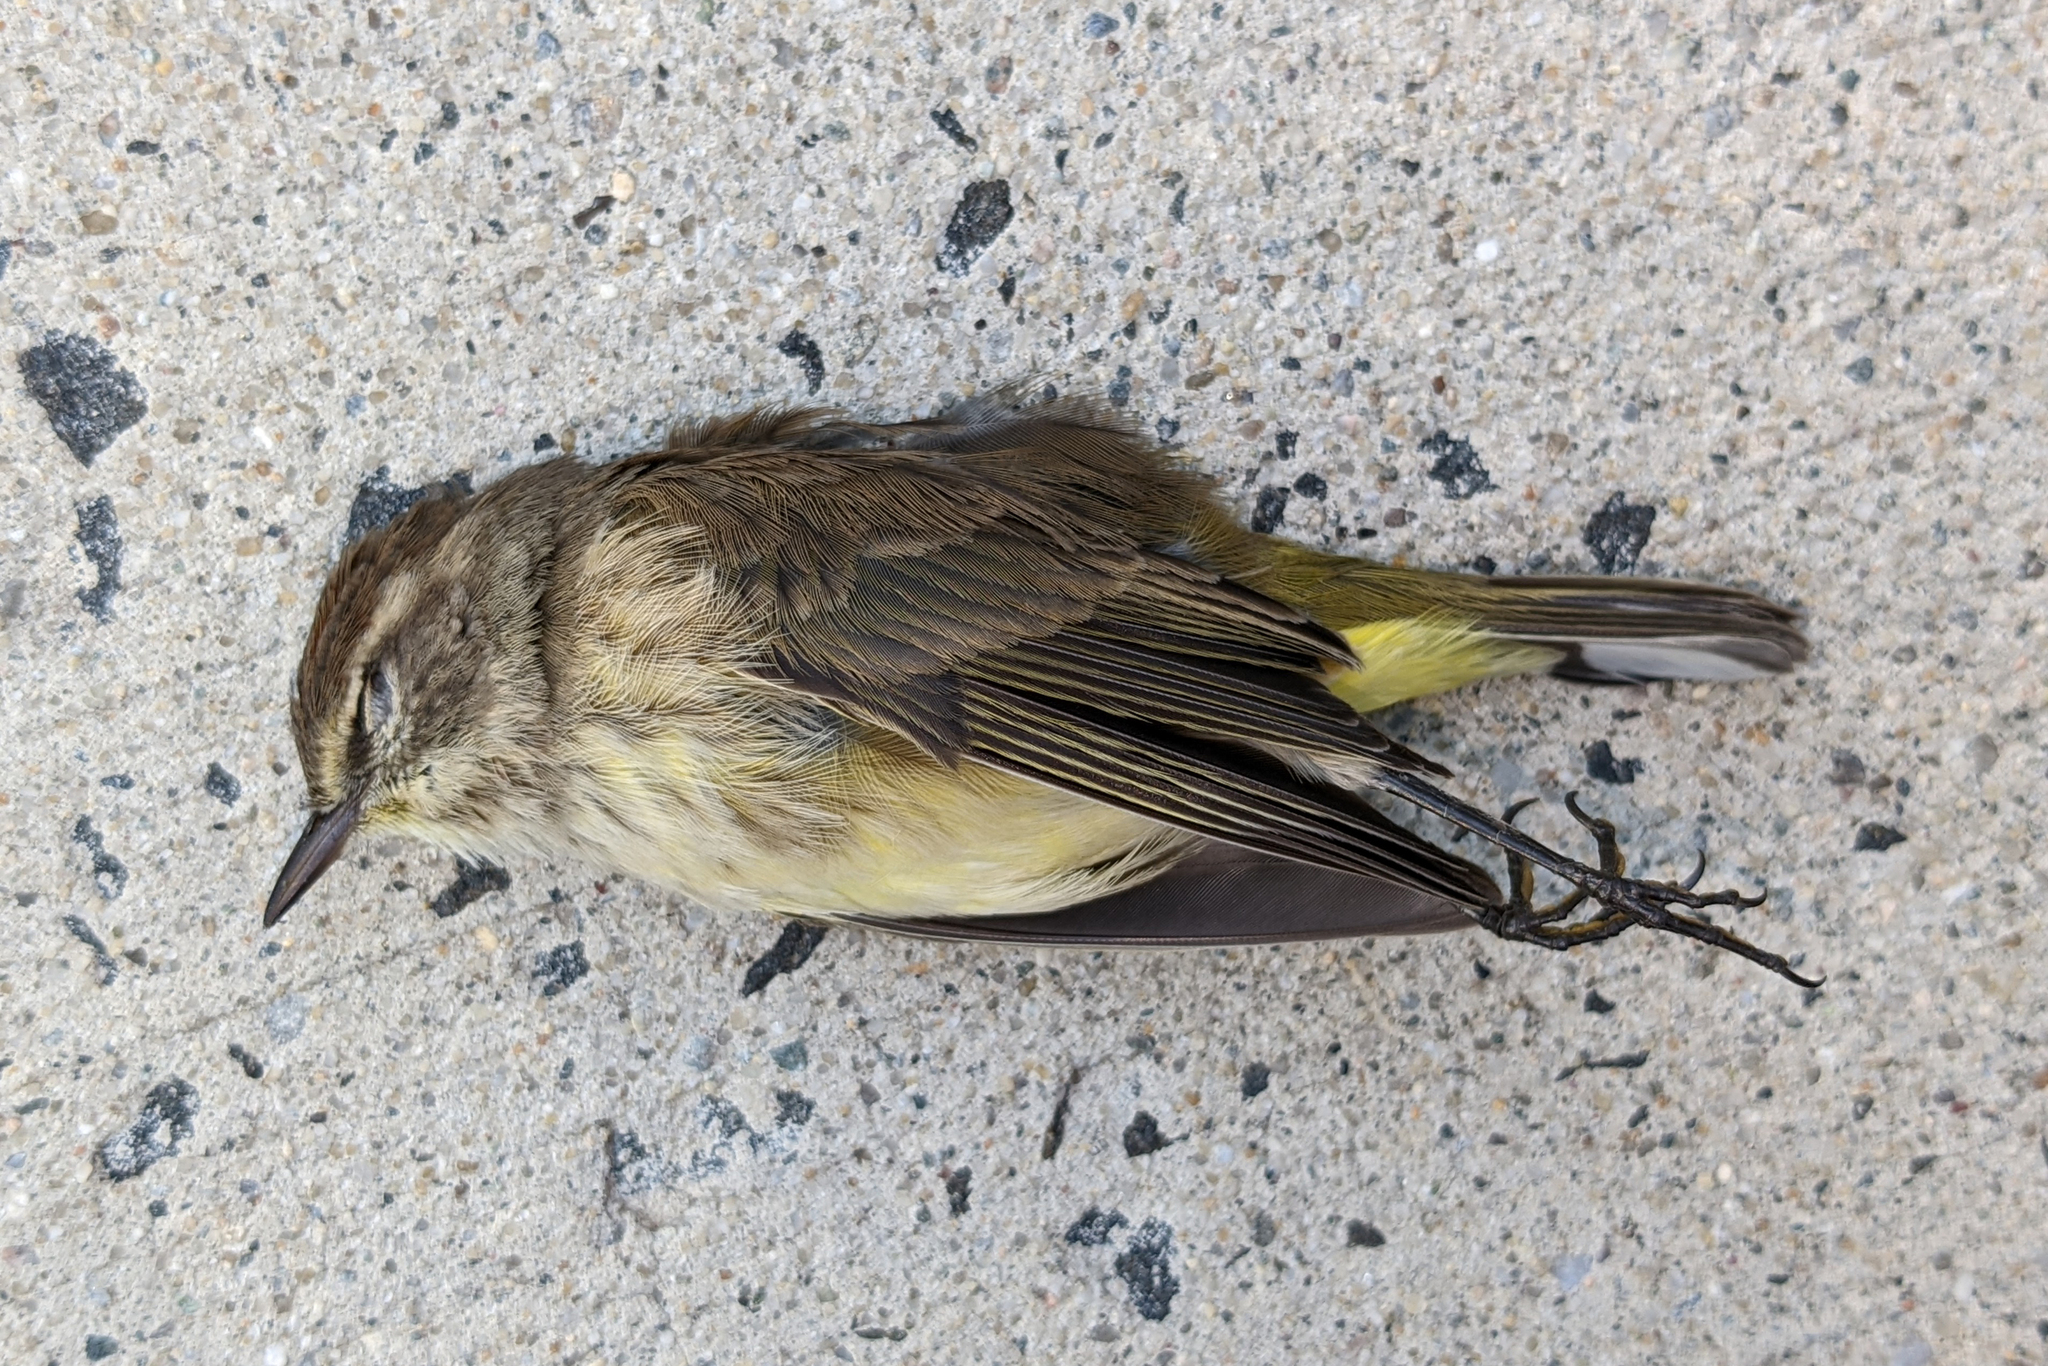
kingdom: Animalia
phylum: Chordata
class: Aves
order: Passeriformes
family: Parulidae
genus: Setophaga
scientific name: Setophaga palmarum
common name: Palm warbler
